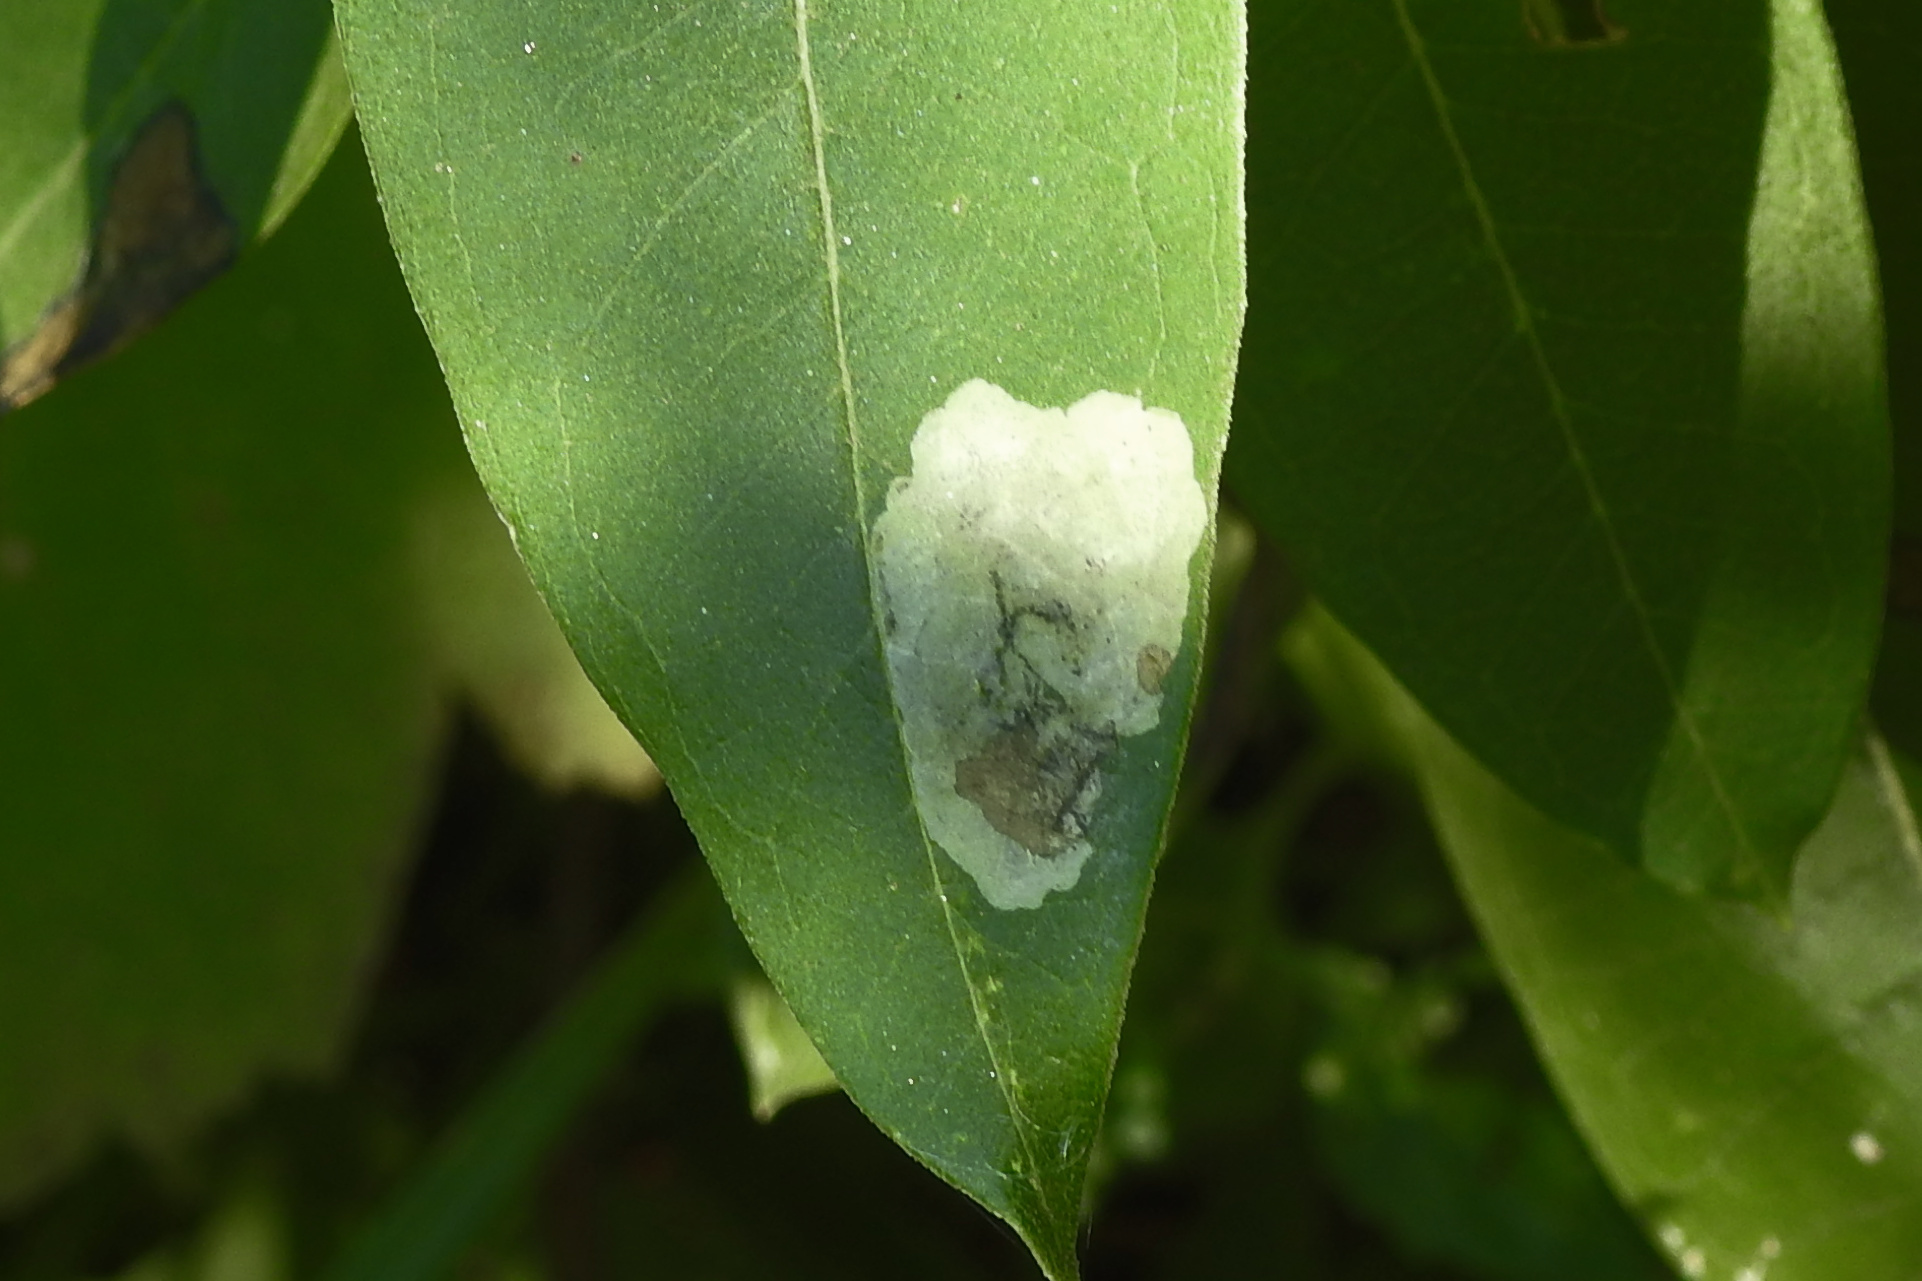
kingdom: Animalia
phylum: Arthropoda
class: Insecta
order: Diptera
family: Agromyzidae
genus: Liriomyza
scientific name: Liriomyza asclepiadis
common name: Milkweed leaf-miner fly
